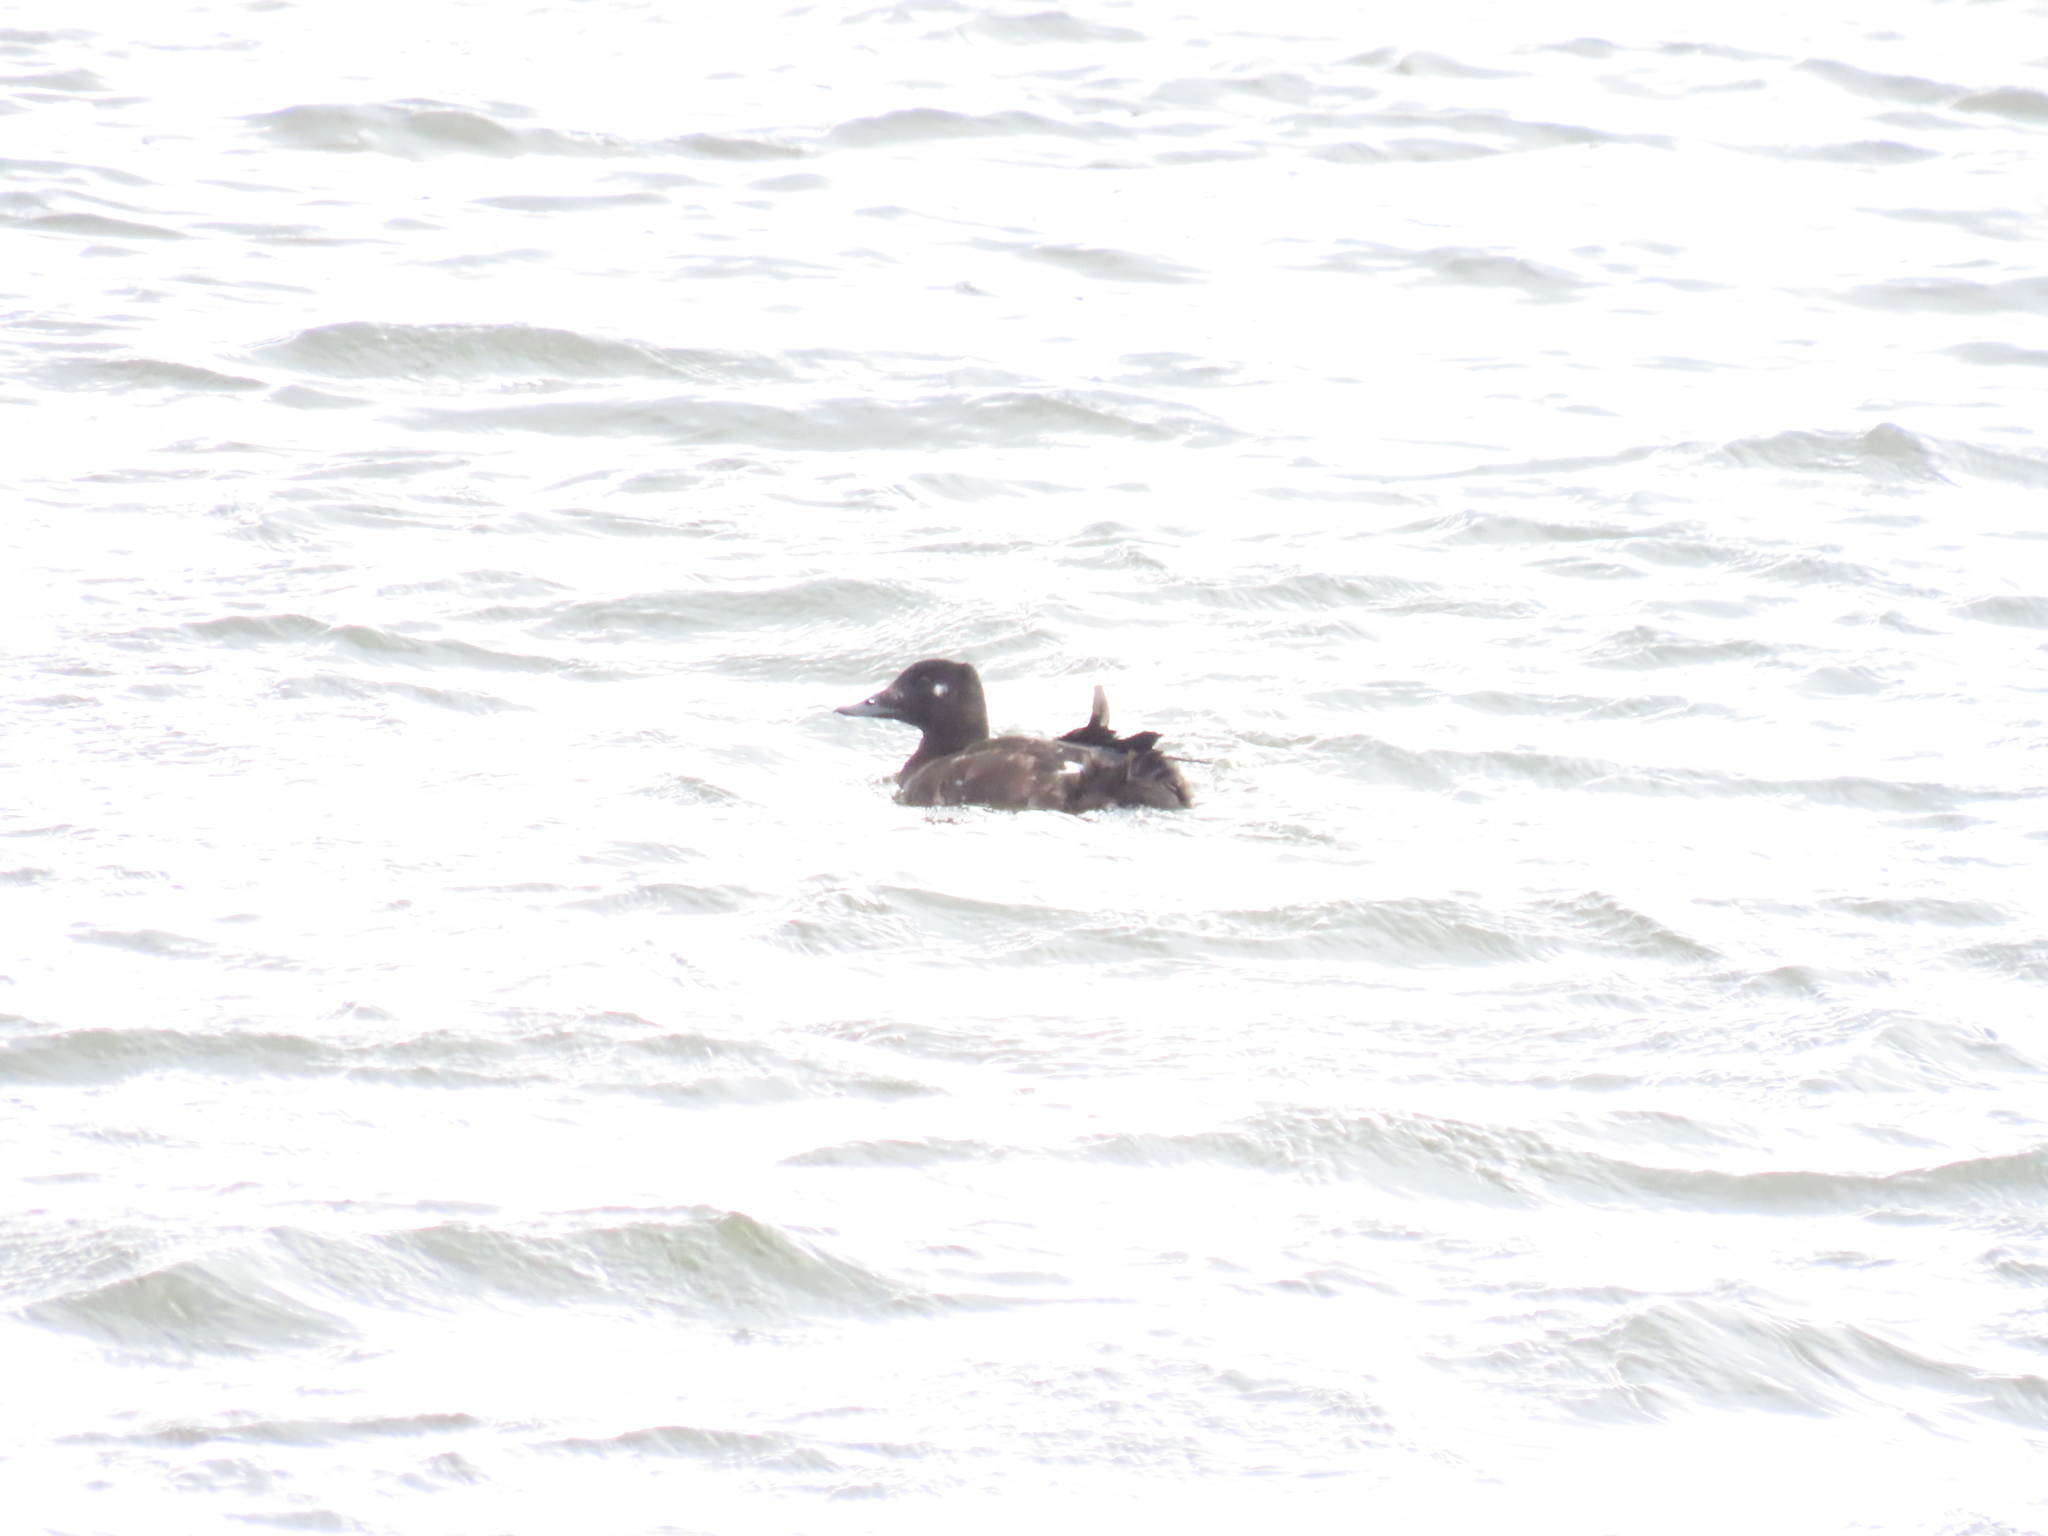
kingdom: Animalia
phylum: Chordata
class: Aves
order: Anseriformes
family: Anatidae
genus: Melanitta
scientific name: Melanitta deglandi
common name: White-winged scoter
